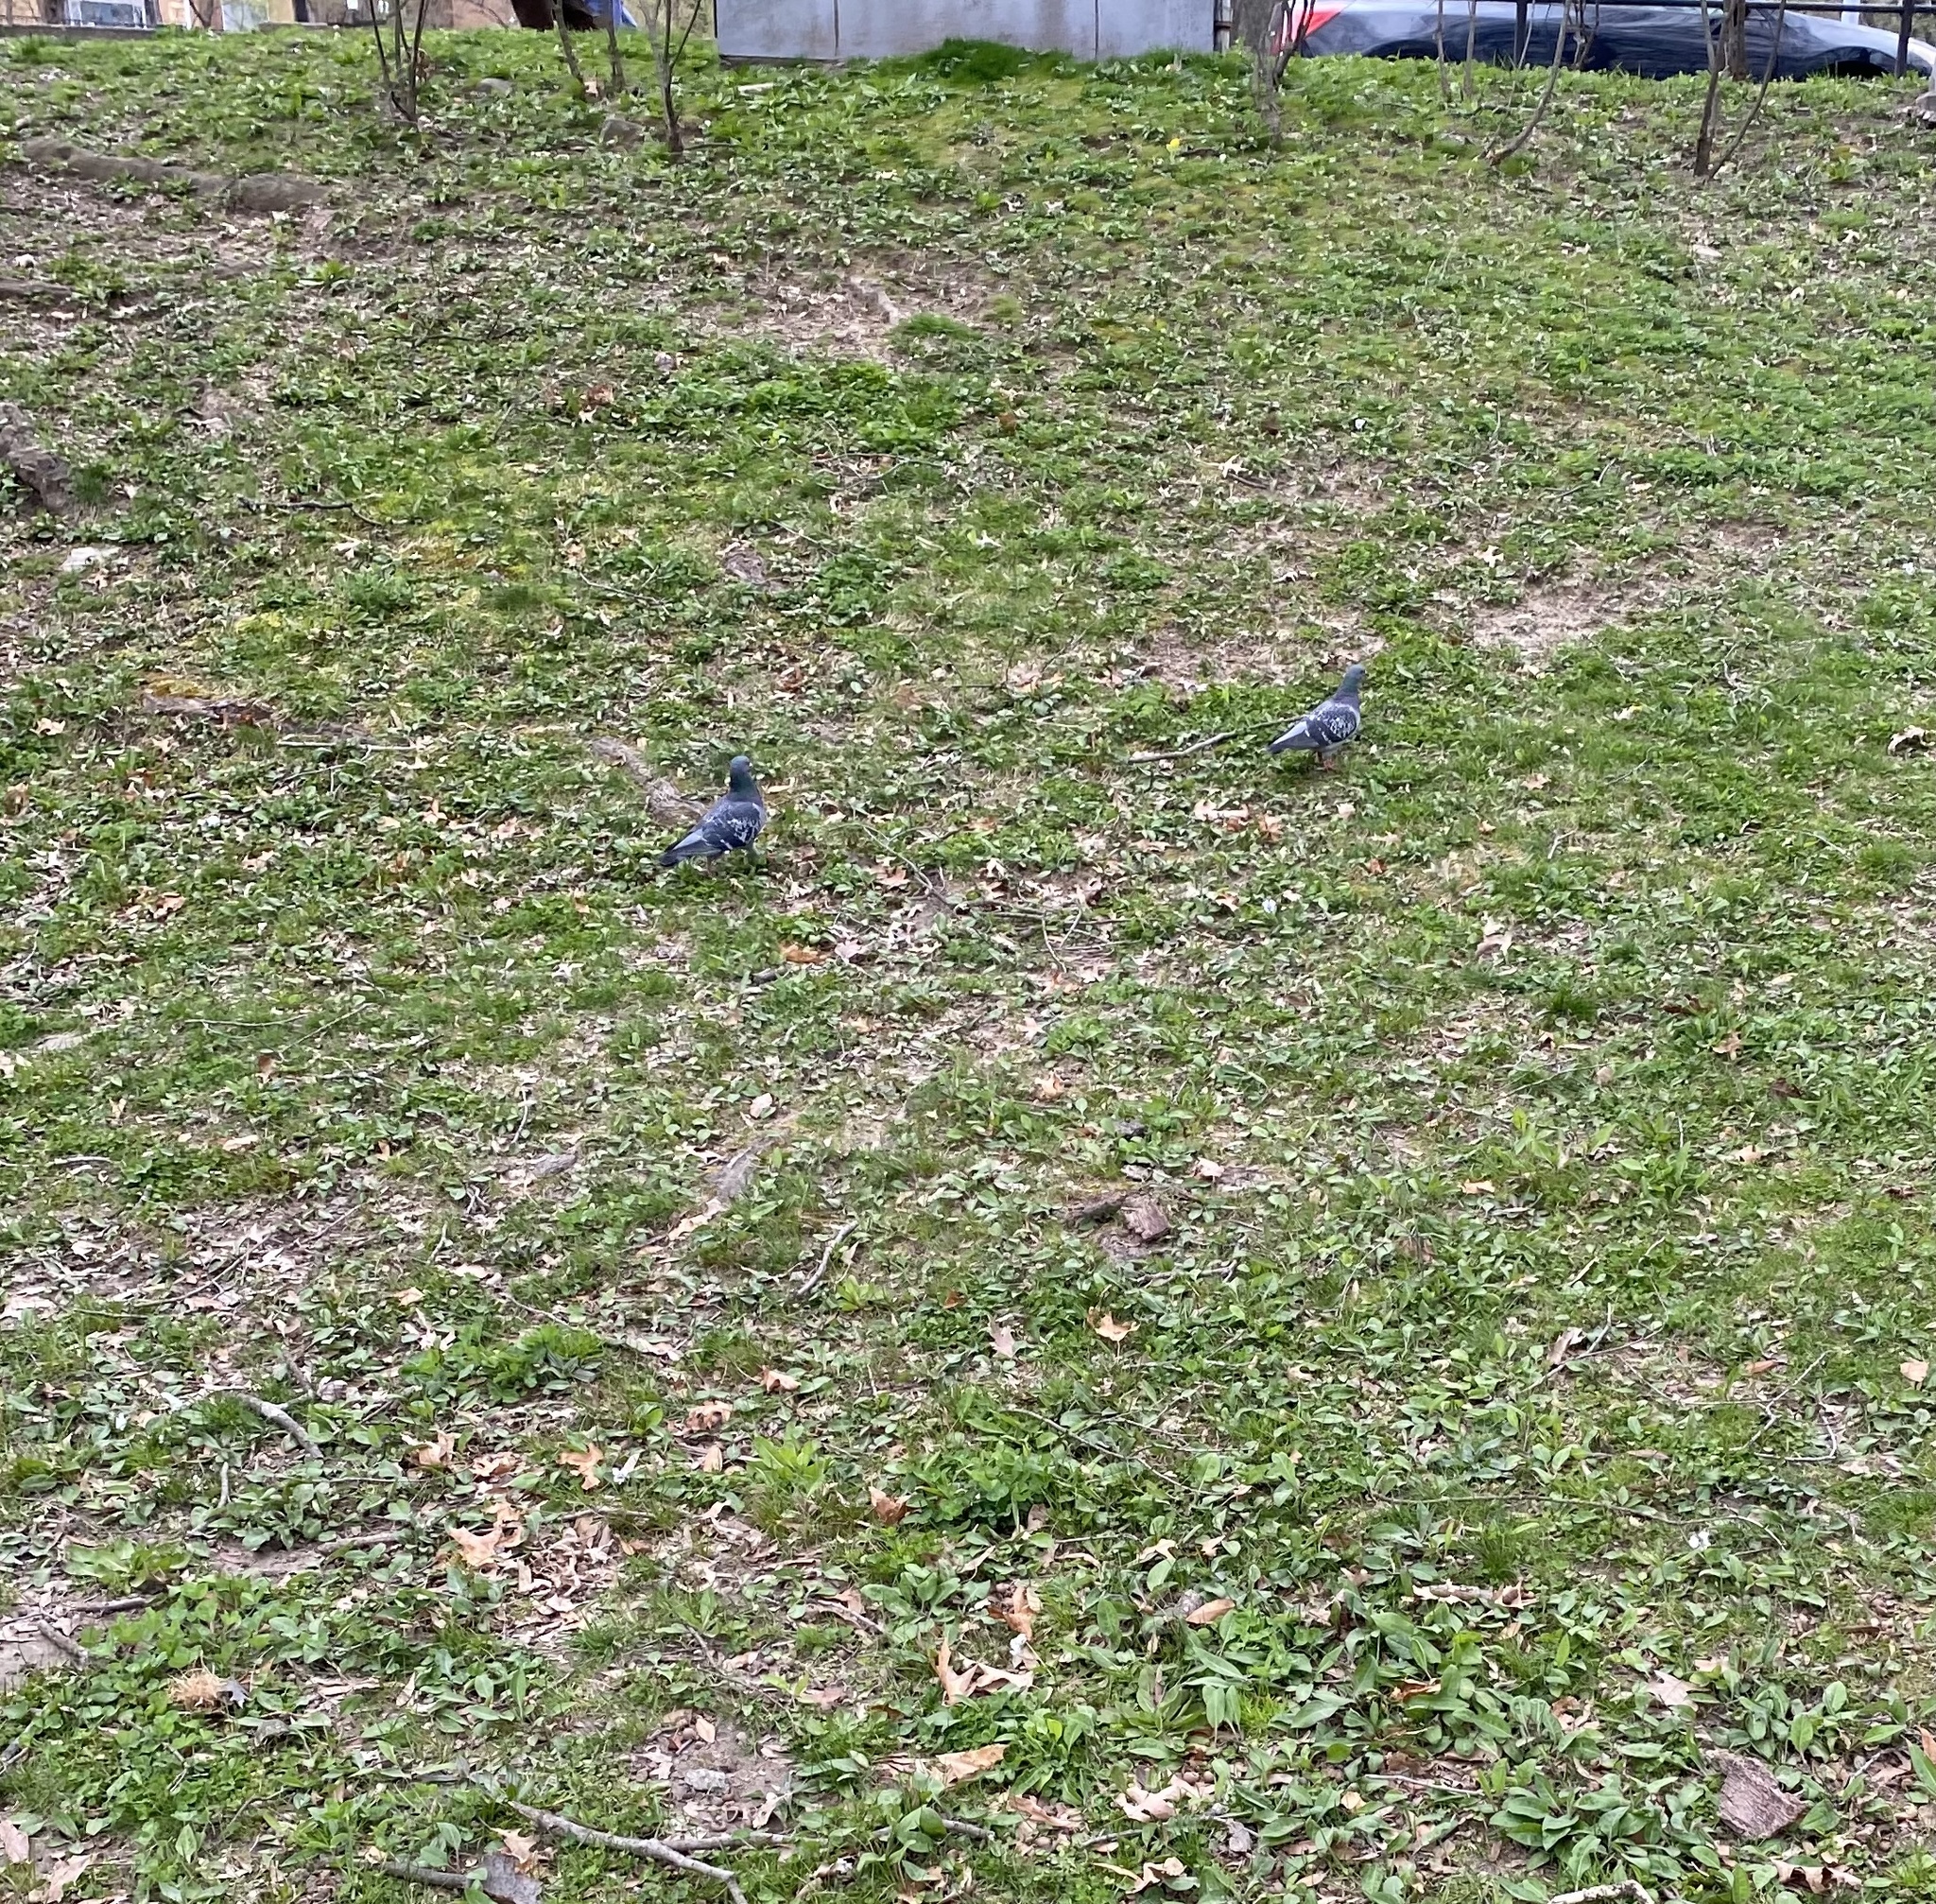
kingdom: Animalia
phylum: Chordata
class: Aves
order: Columbiformes
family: Columbidae
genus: Columba
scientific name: Columba livia
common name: Rock pigeon
